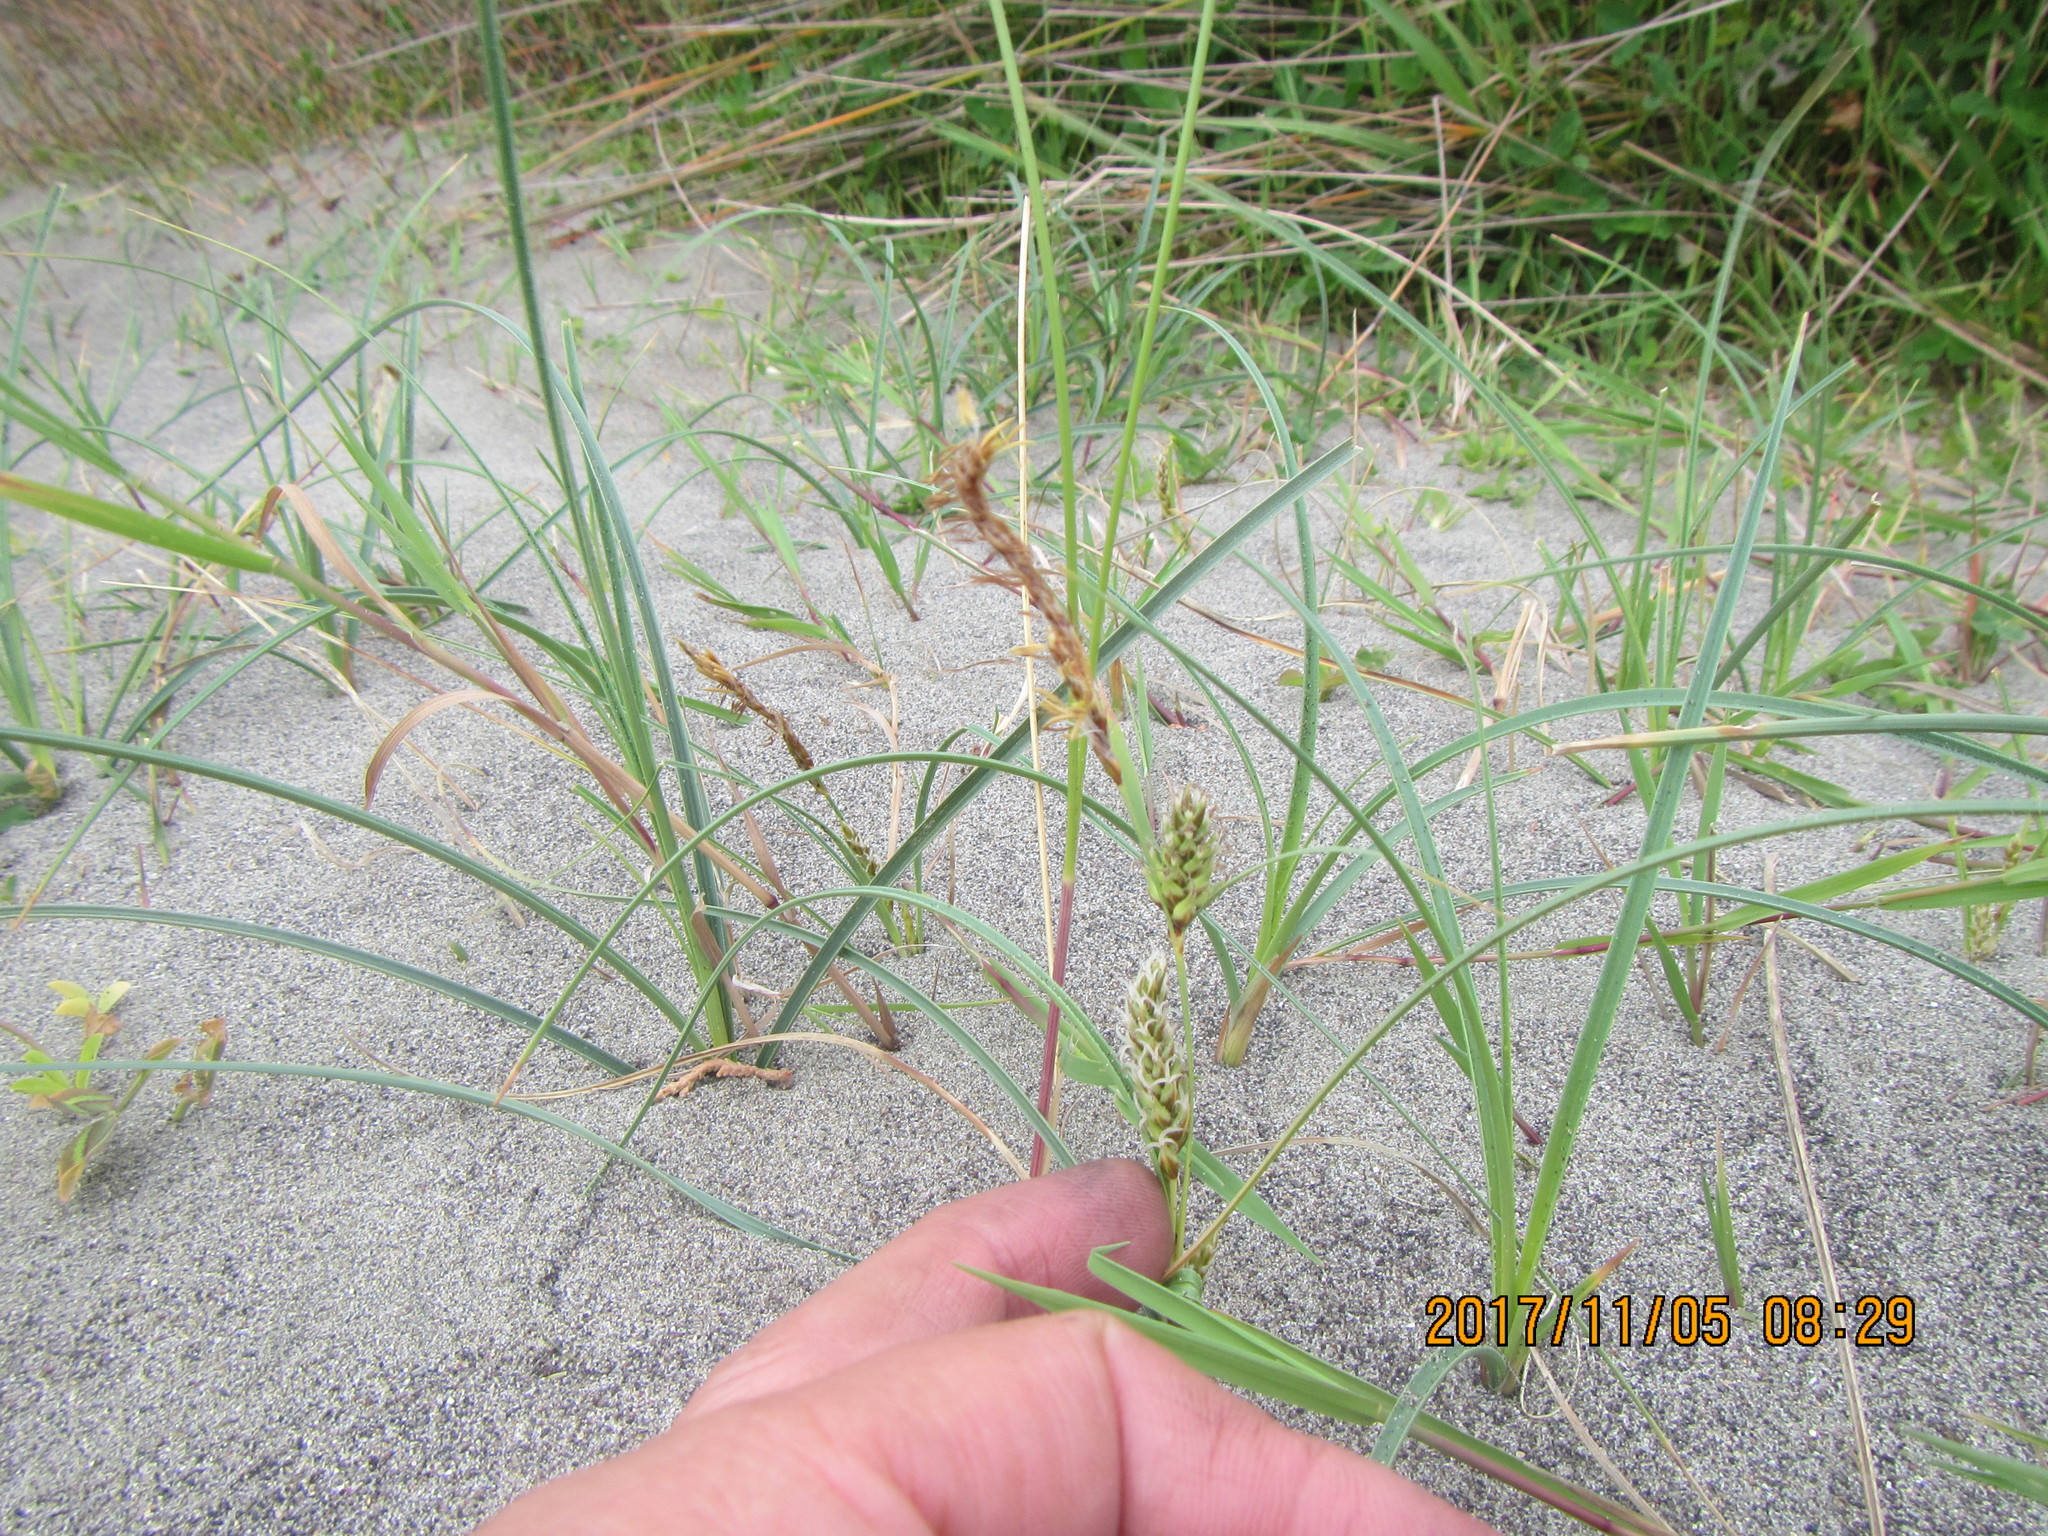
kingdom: Plantae
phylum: Tracheophyta
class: Liliopsida
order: Poales
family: Cyperaceae
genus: Carex
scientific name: Carex pumila
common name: Dwarf sedge
